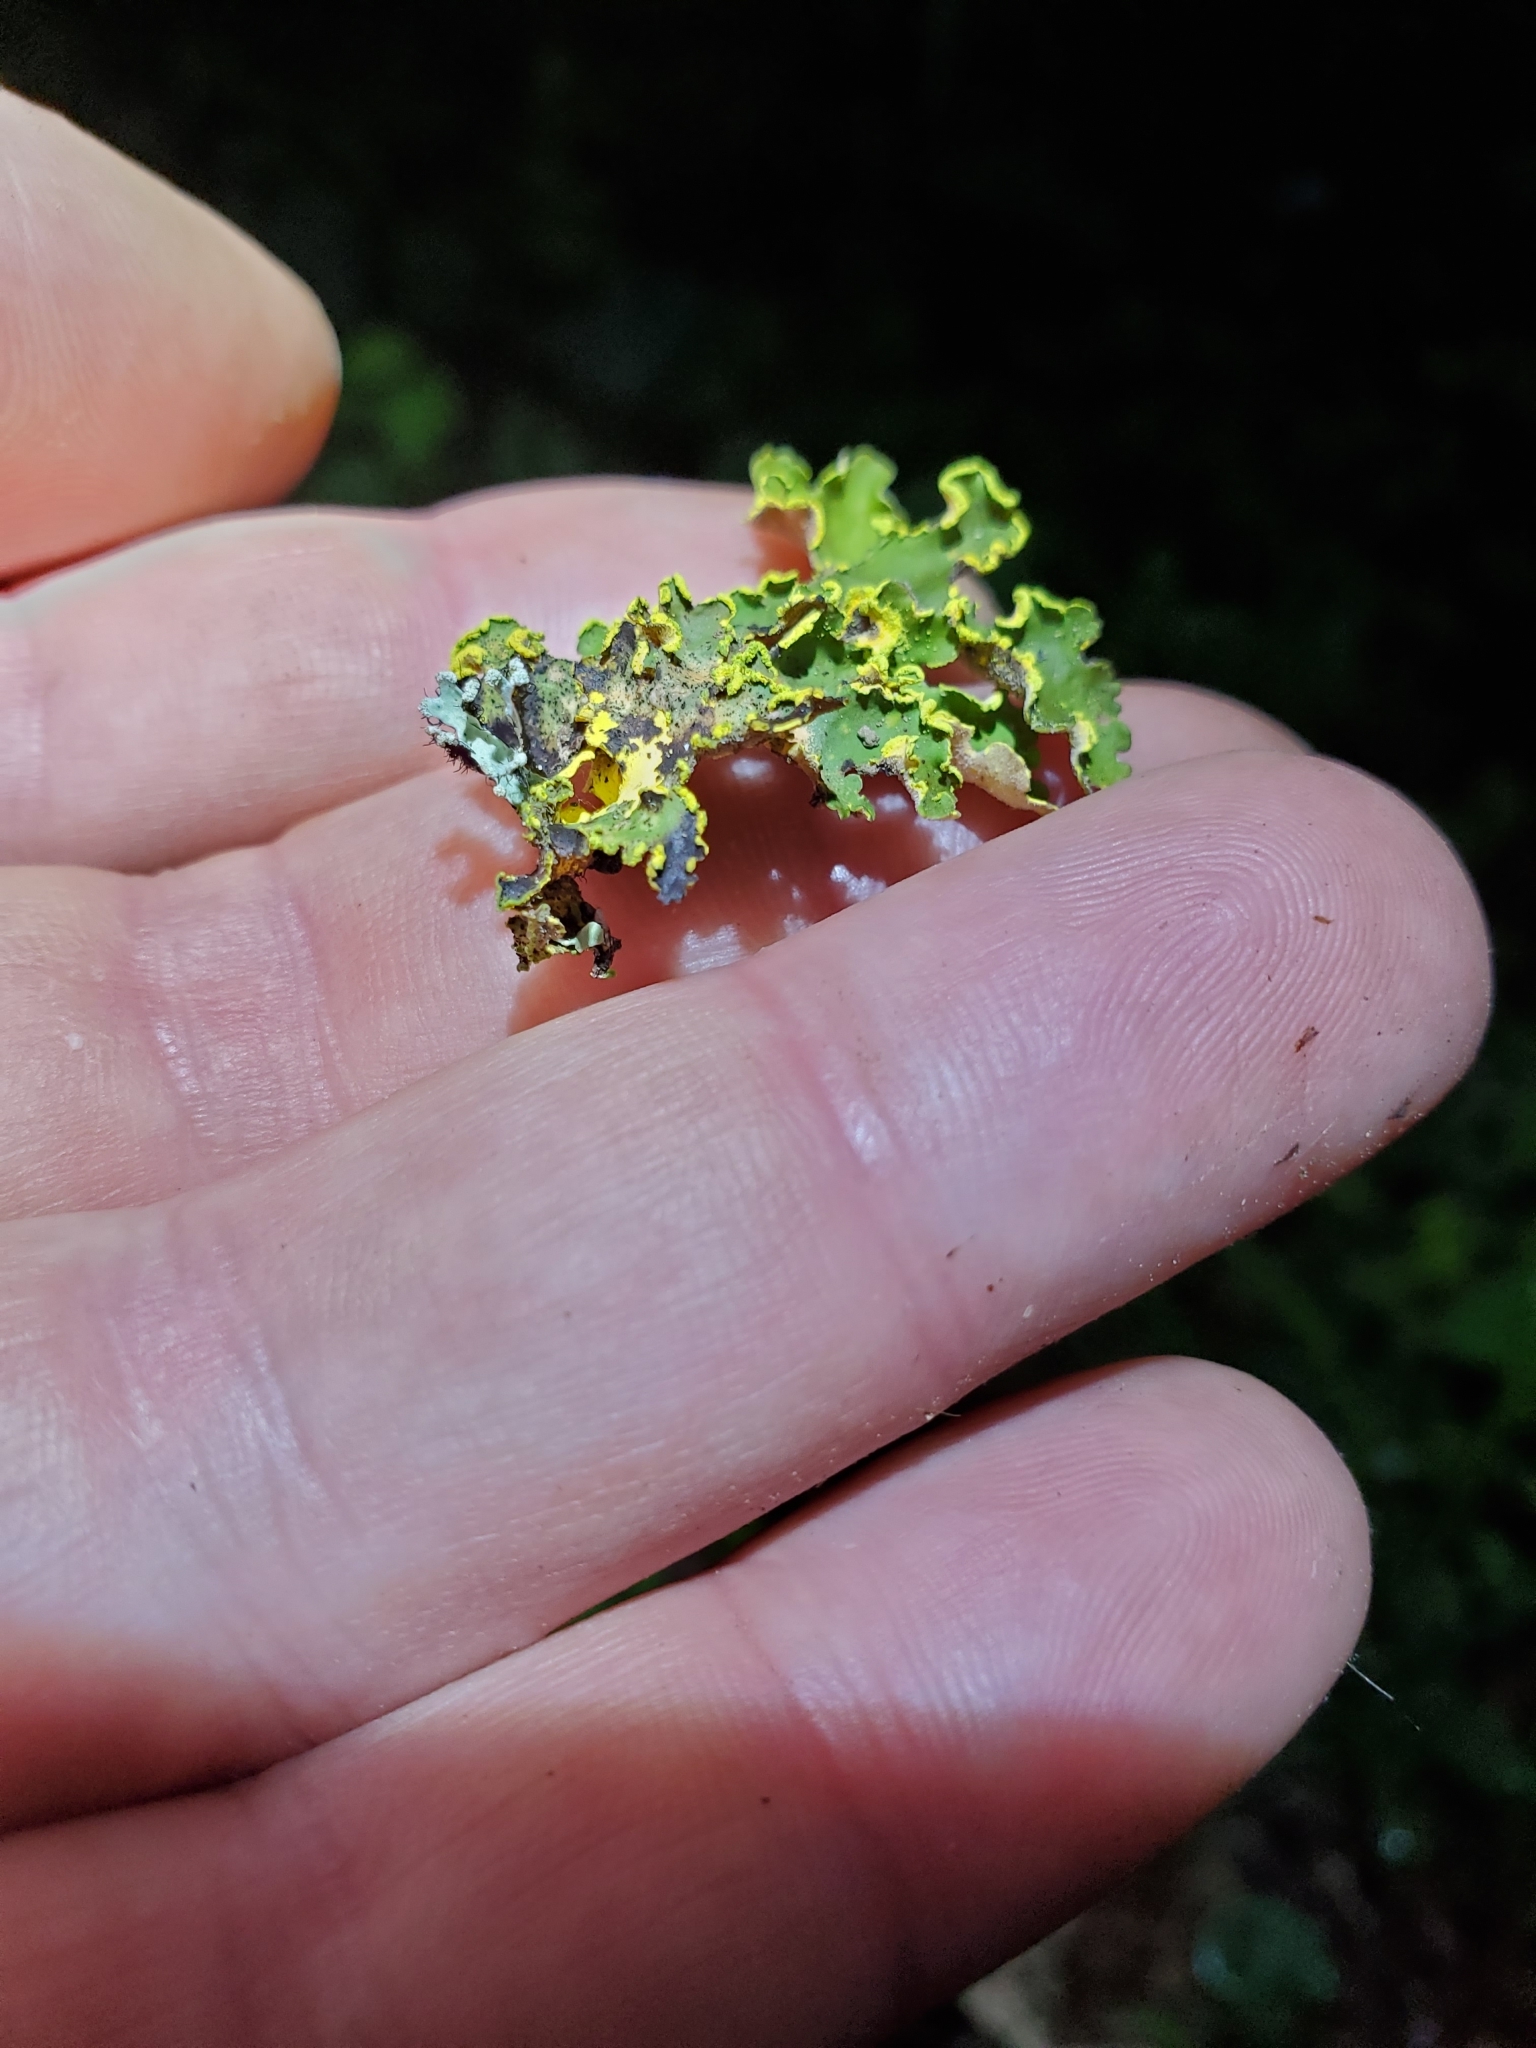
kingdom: Fungi
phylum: Ascomycota
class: Lecanoromycetes
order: Peltigerales
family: Lobariaceae
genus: Pseudocyphellaria
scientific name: Pseudocyphellaria aurata
